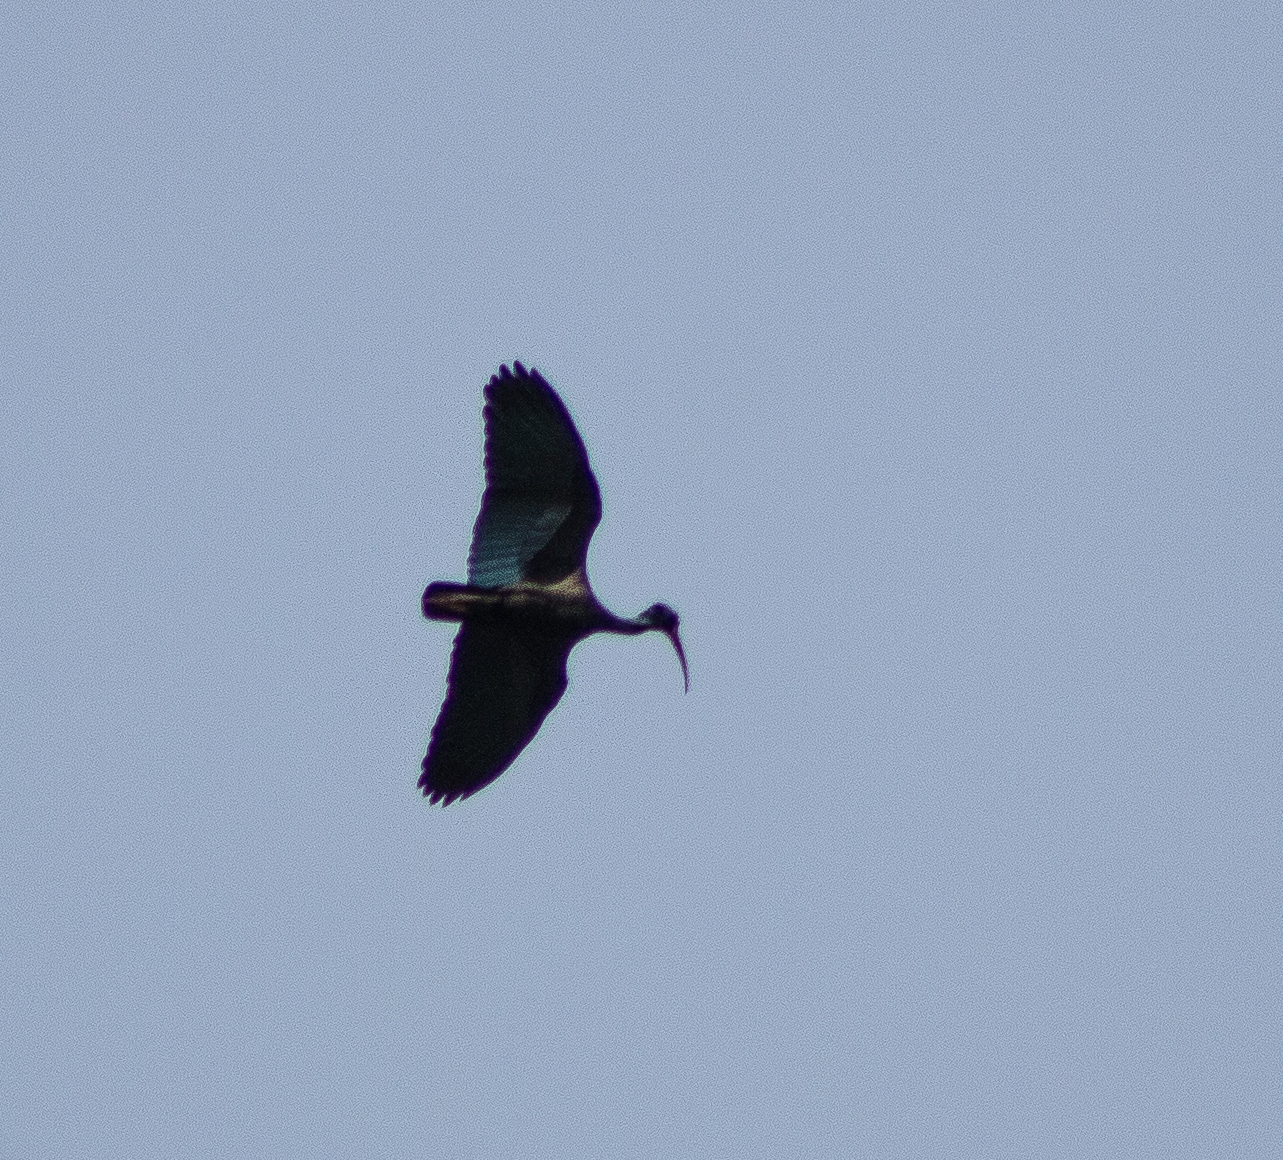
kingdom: Animalia
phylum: Chordata
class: Aves
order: Pelecaniformes
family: Threskiornithidae
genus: Phimosus
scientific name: Phimosus infuscatus
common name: Bare-faced ibis
